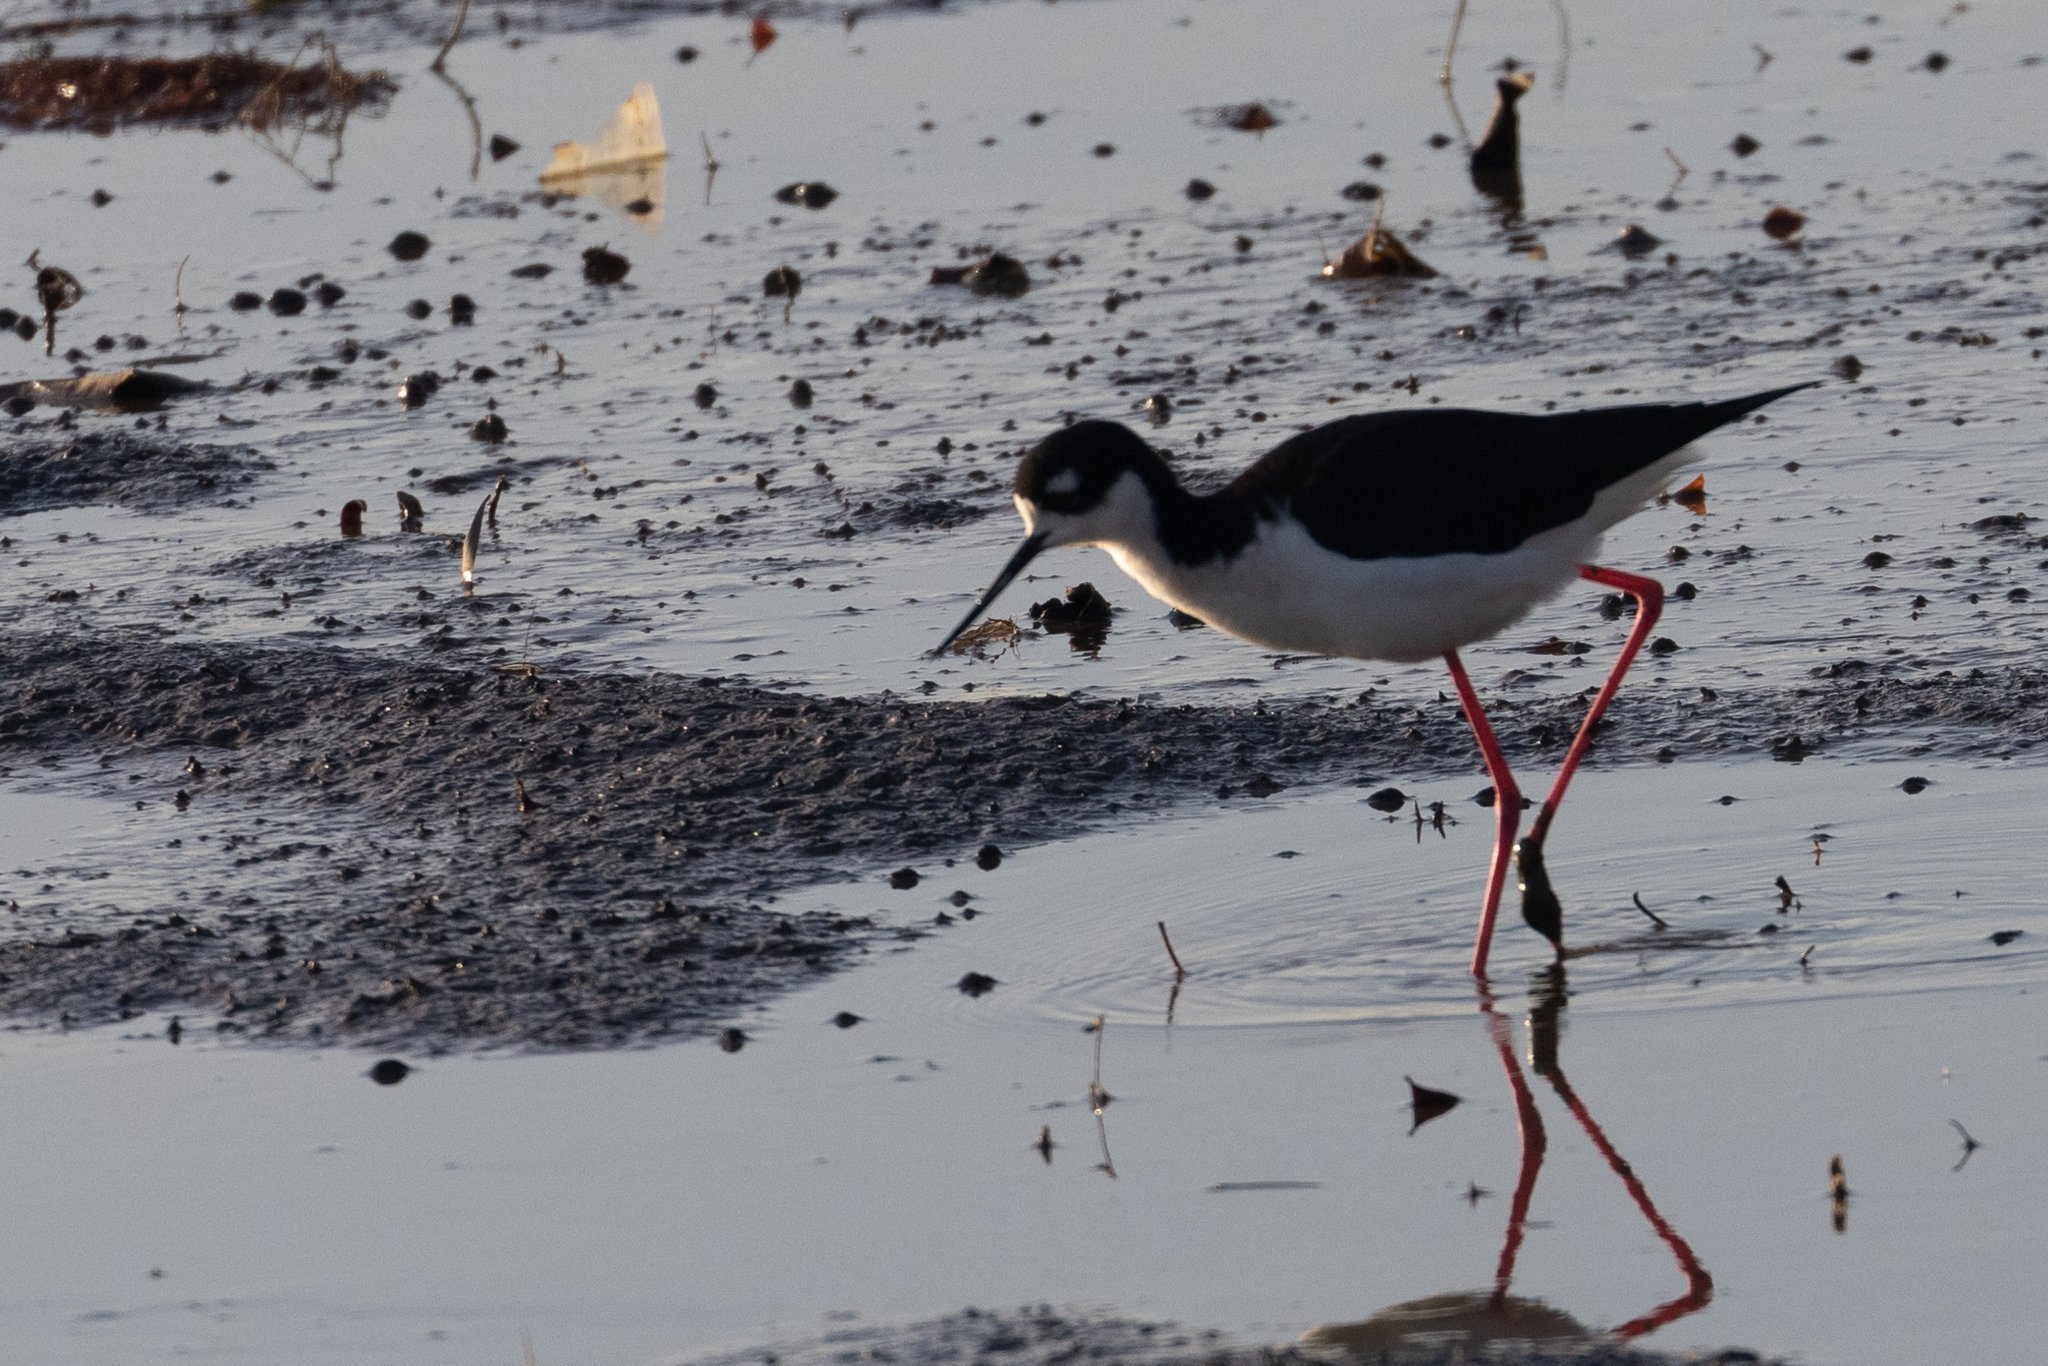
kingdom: Animalia
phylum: Chordata
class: Aves
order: Charadriiformes
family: Recurvirostridae
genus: Himantopus
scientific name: Himantopus mexicanus
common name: Black-necked stilt
